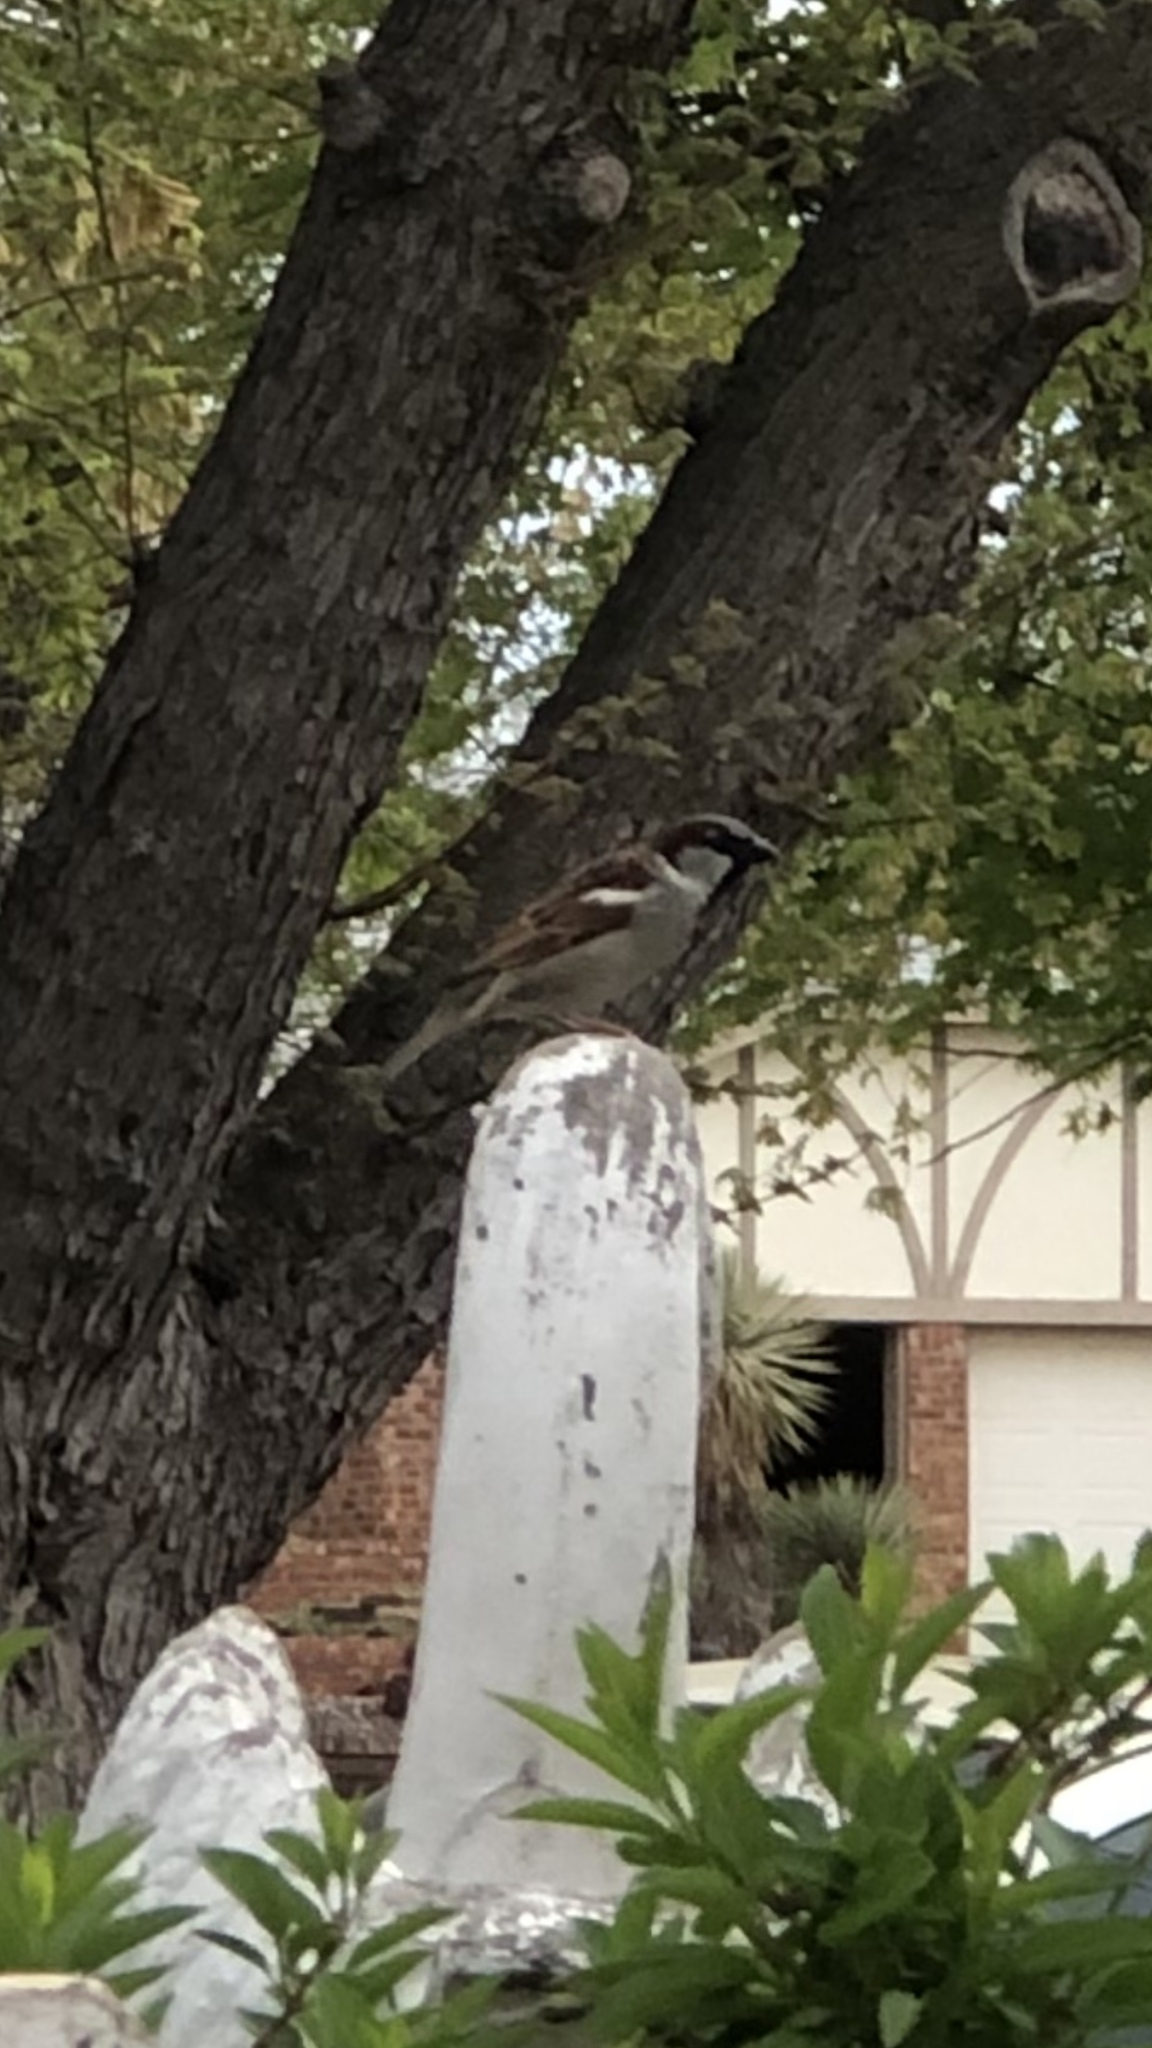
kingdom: Animalia
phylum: Chordata
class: Aves
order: Passeriformes
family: Passeridae
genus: Passer
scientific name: Passer domesticus
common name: House sparrow
